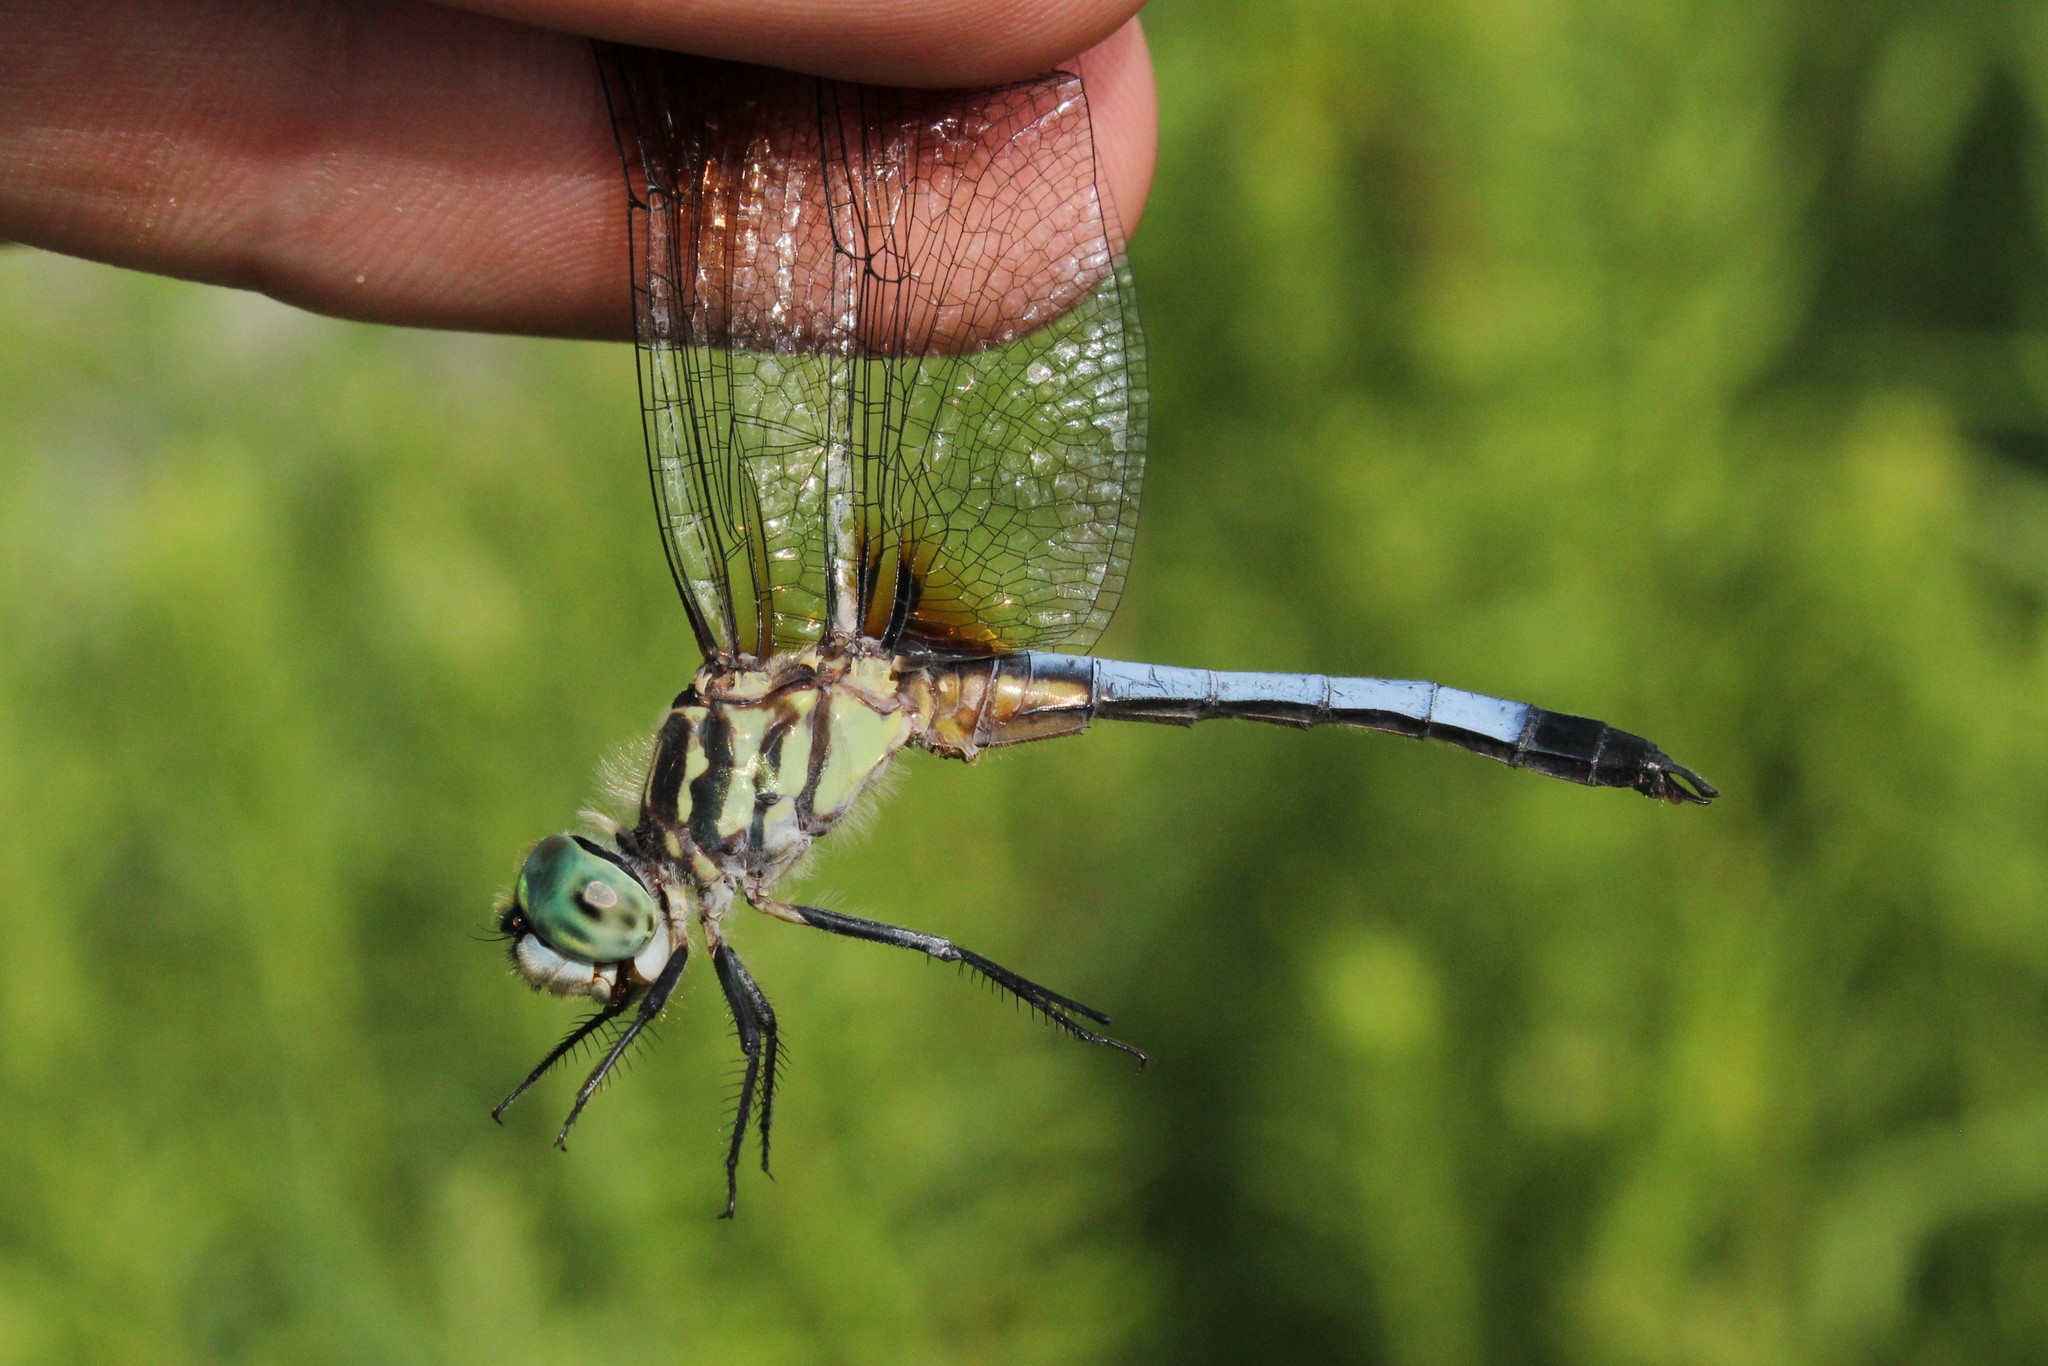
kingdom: Animalia
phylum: Arthropoda
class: Insecta
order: Odonata
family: Libellulidae
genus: Pachydiplax
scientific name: Pachydiplax longipennis
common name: Blue dasher
